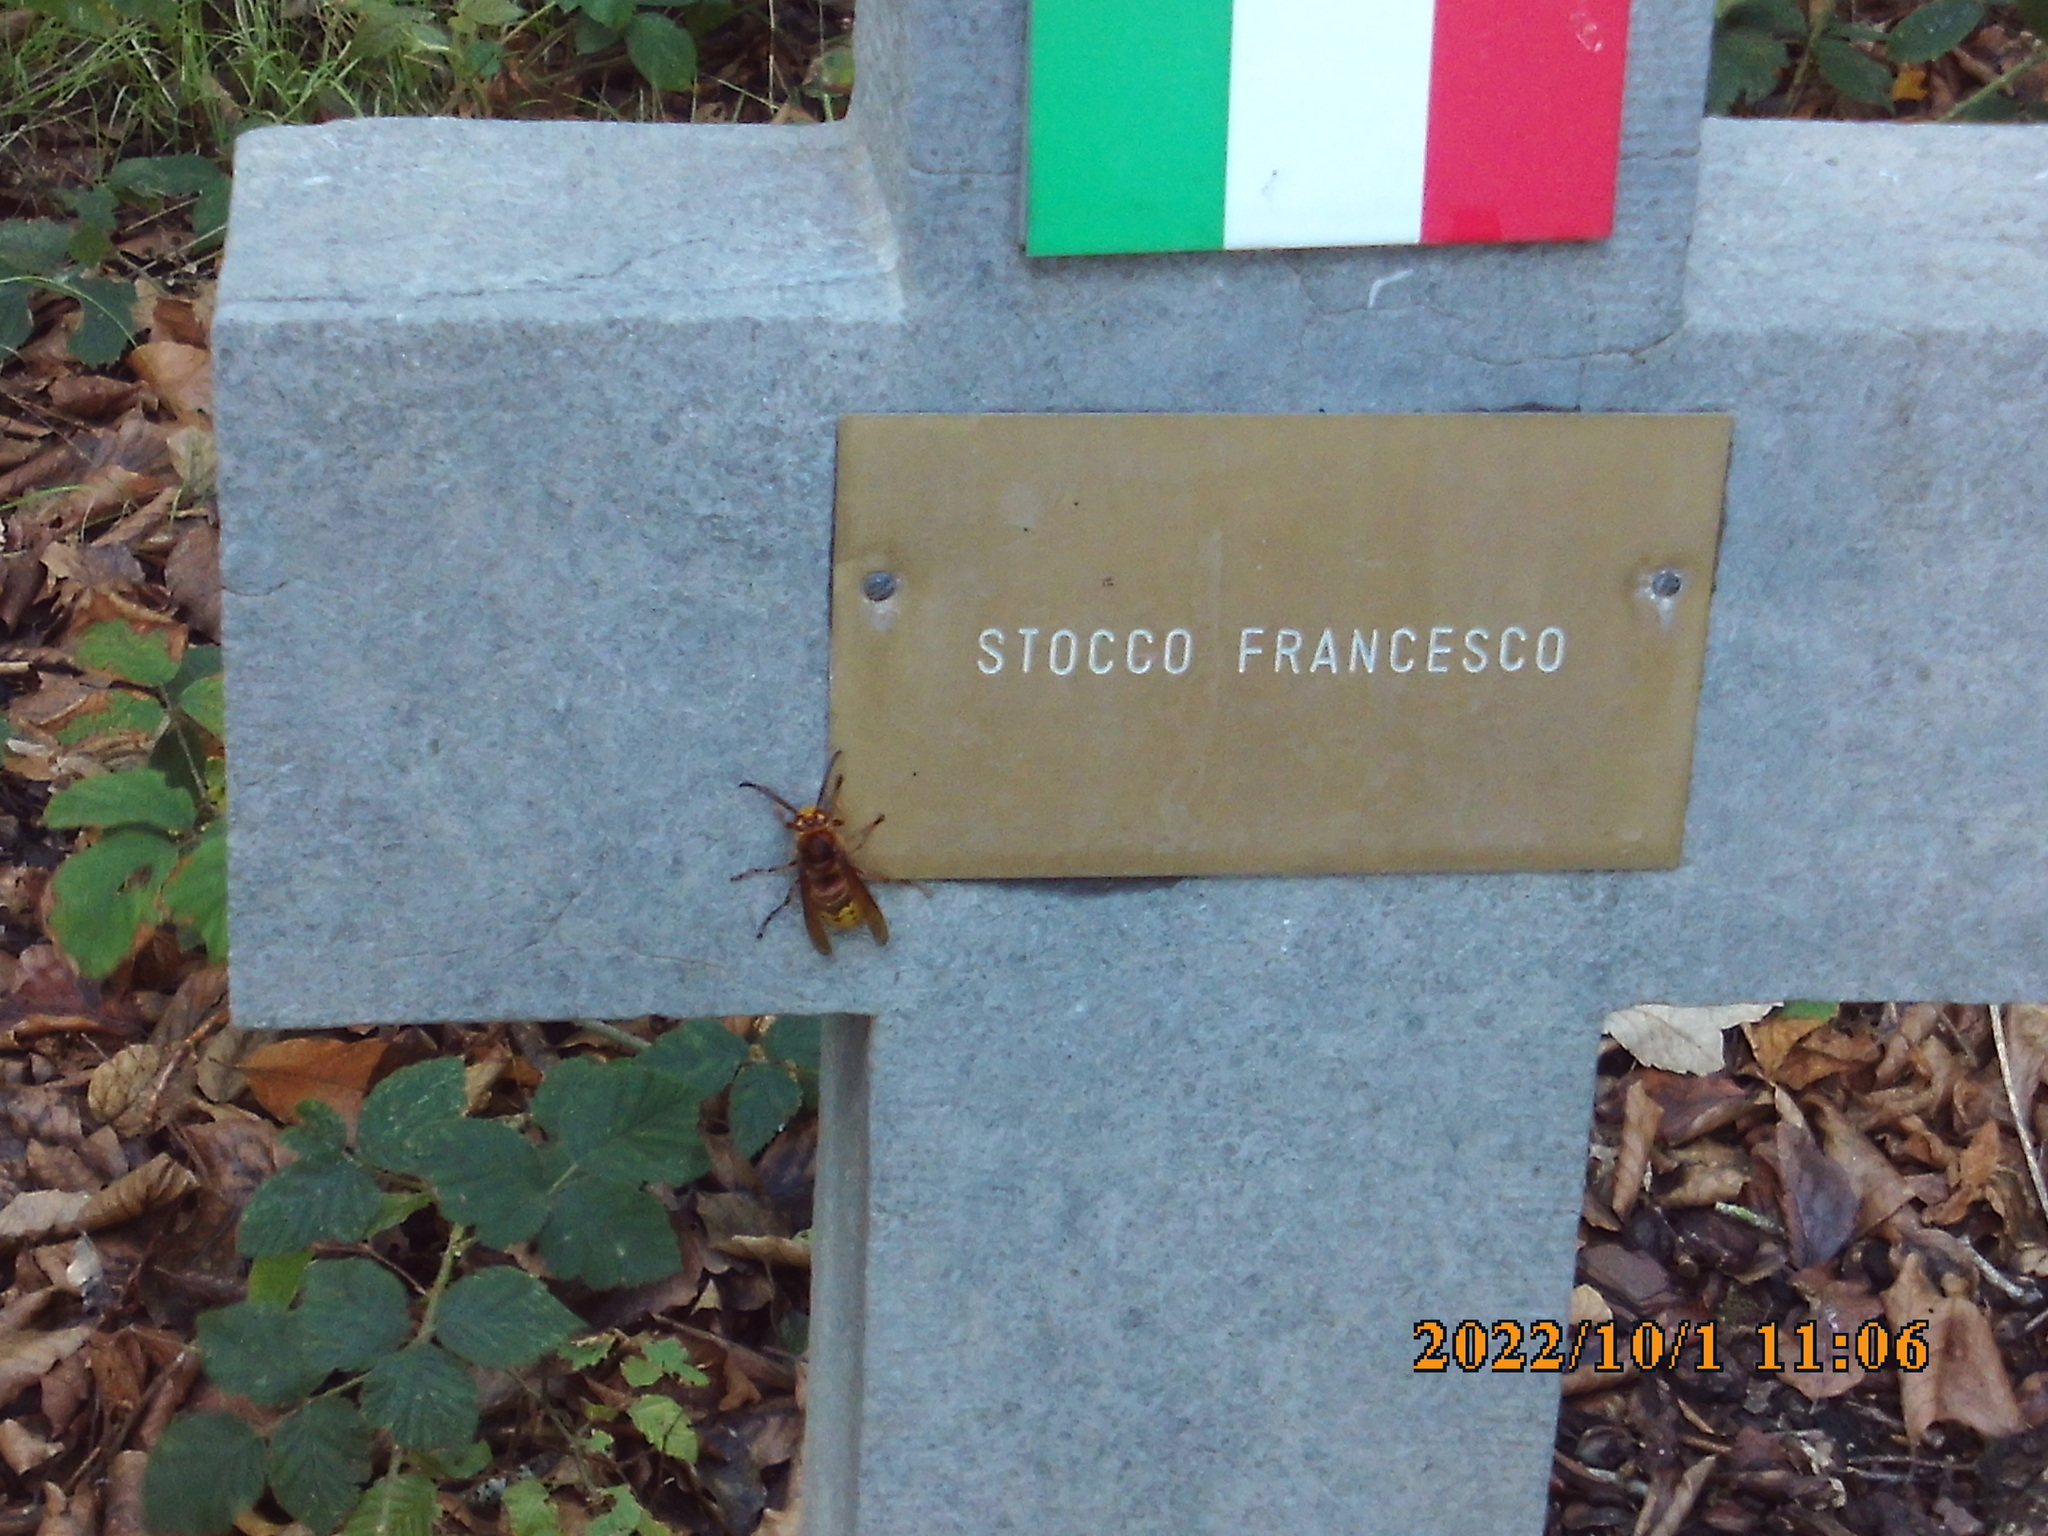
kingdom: Animalia
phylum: Arthropoda
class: Insecta
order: Hymenoptera
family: Vespidae
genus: Vespa
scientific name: Vespa crabro
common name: Hornet
